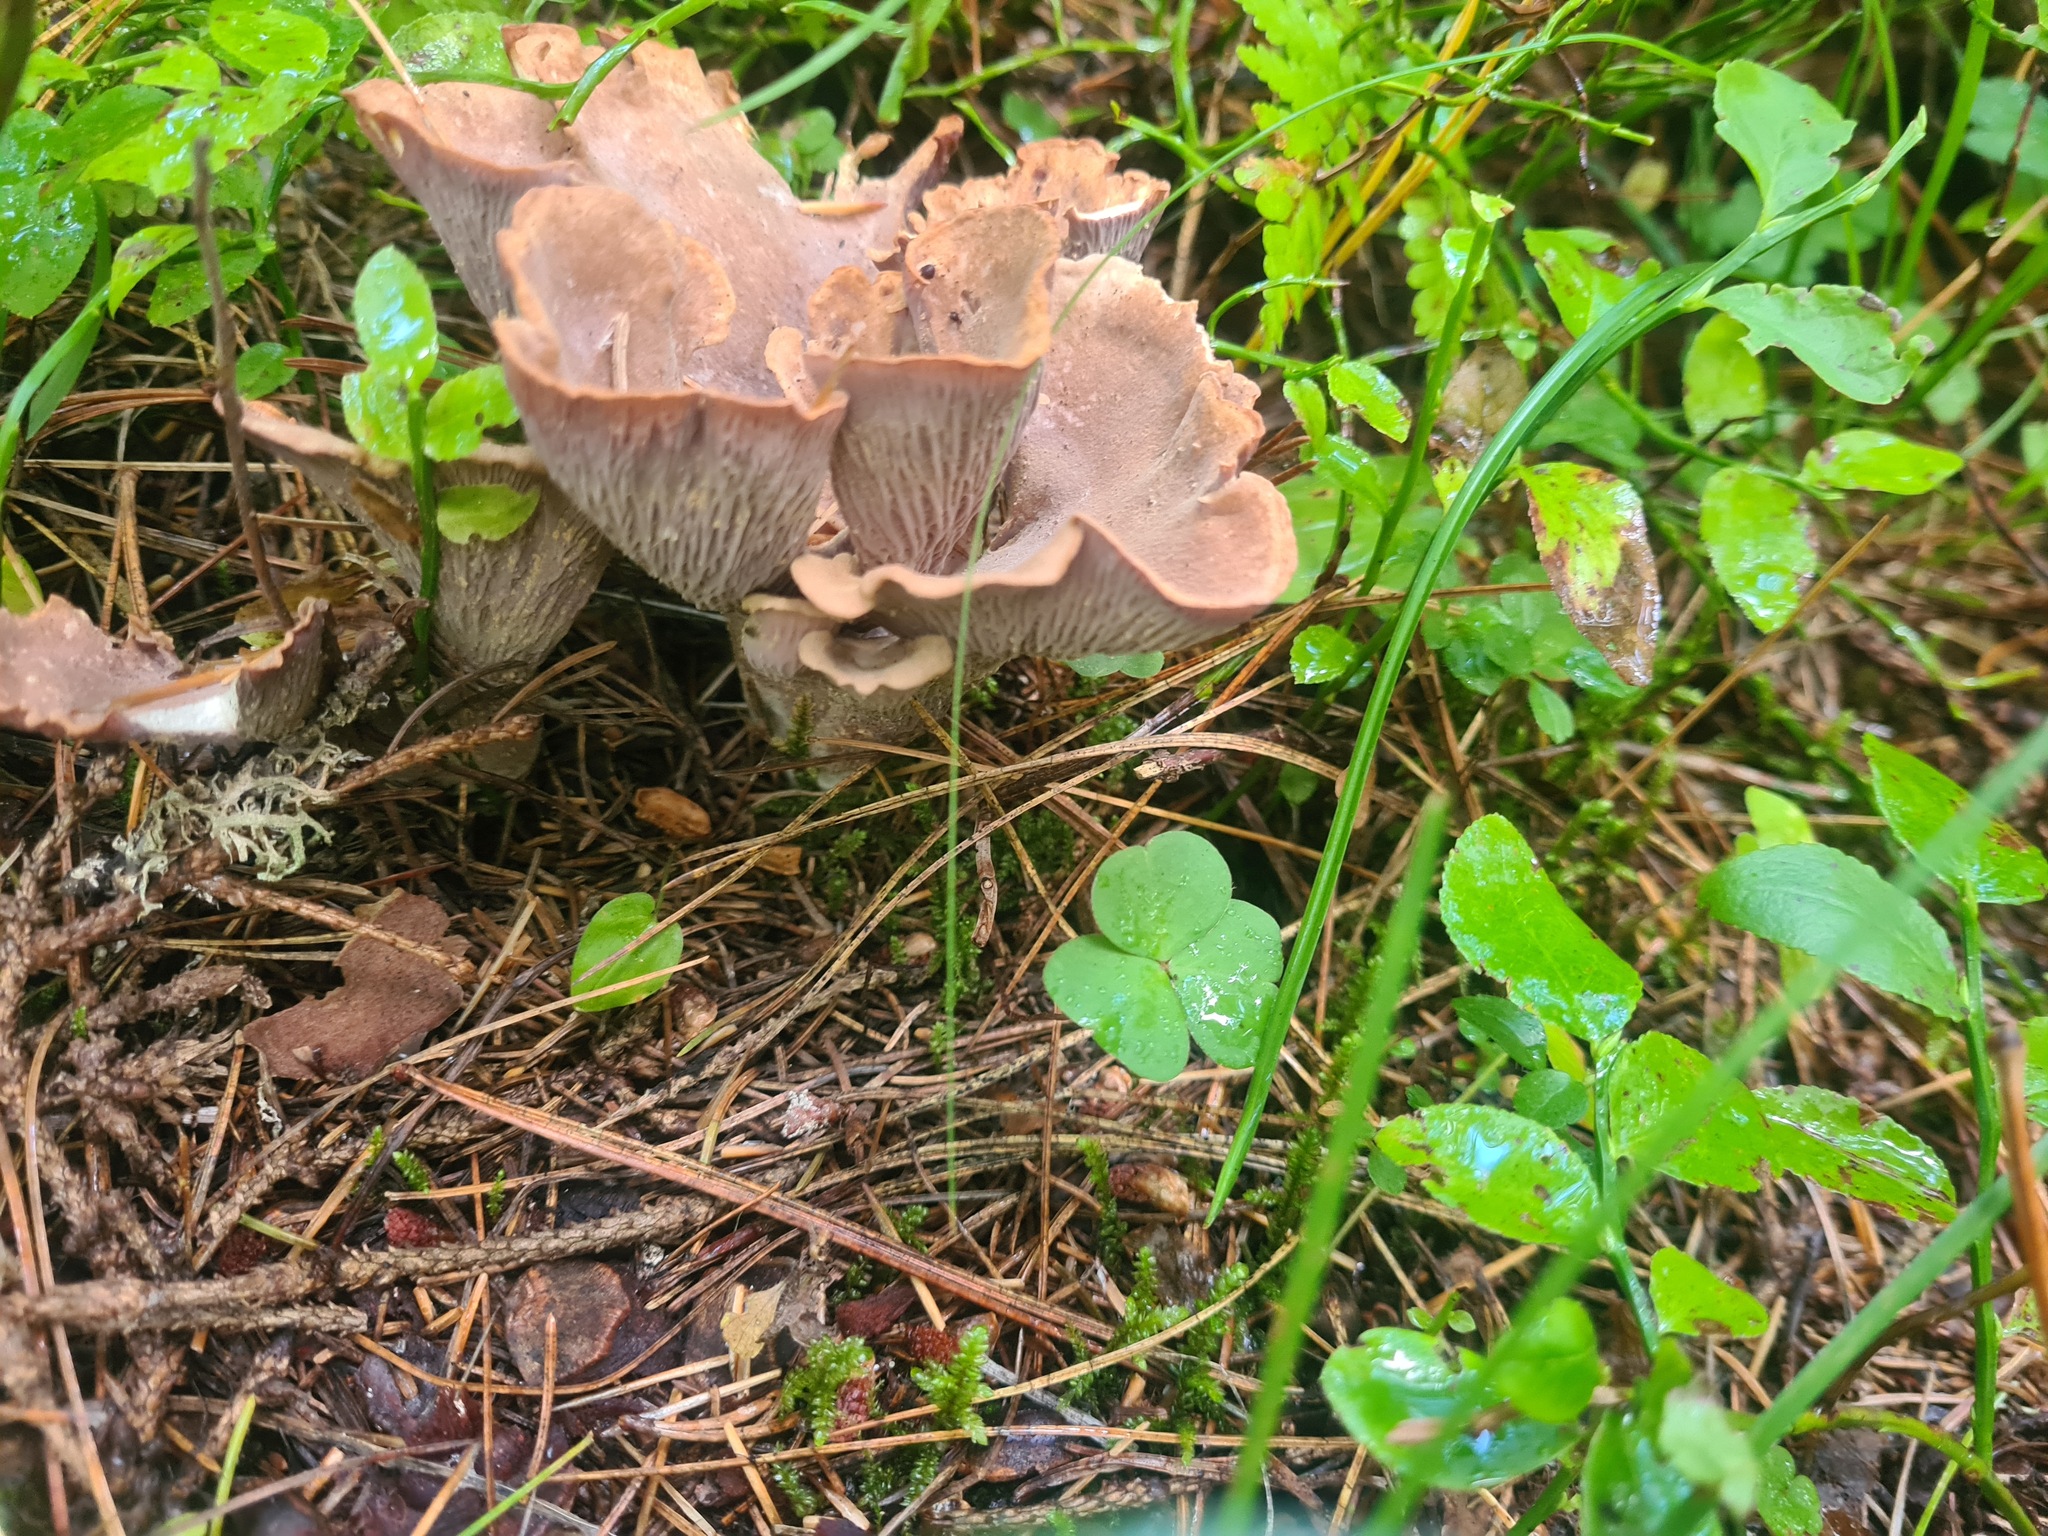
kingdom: Fungi
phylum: Basidiomycota
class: Agaricomycetes
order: Gomphales
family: Gomphaceae
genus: Gomphus
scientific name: Gomphus clavatus
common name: Pig's ear
